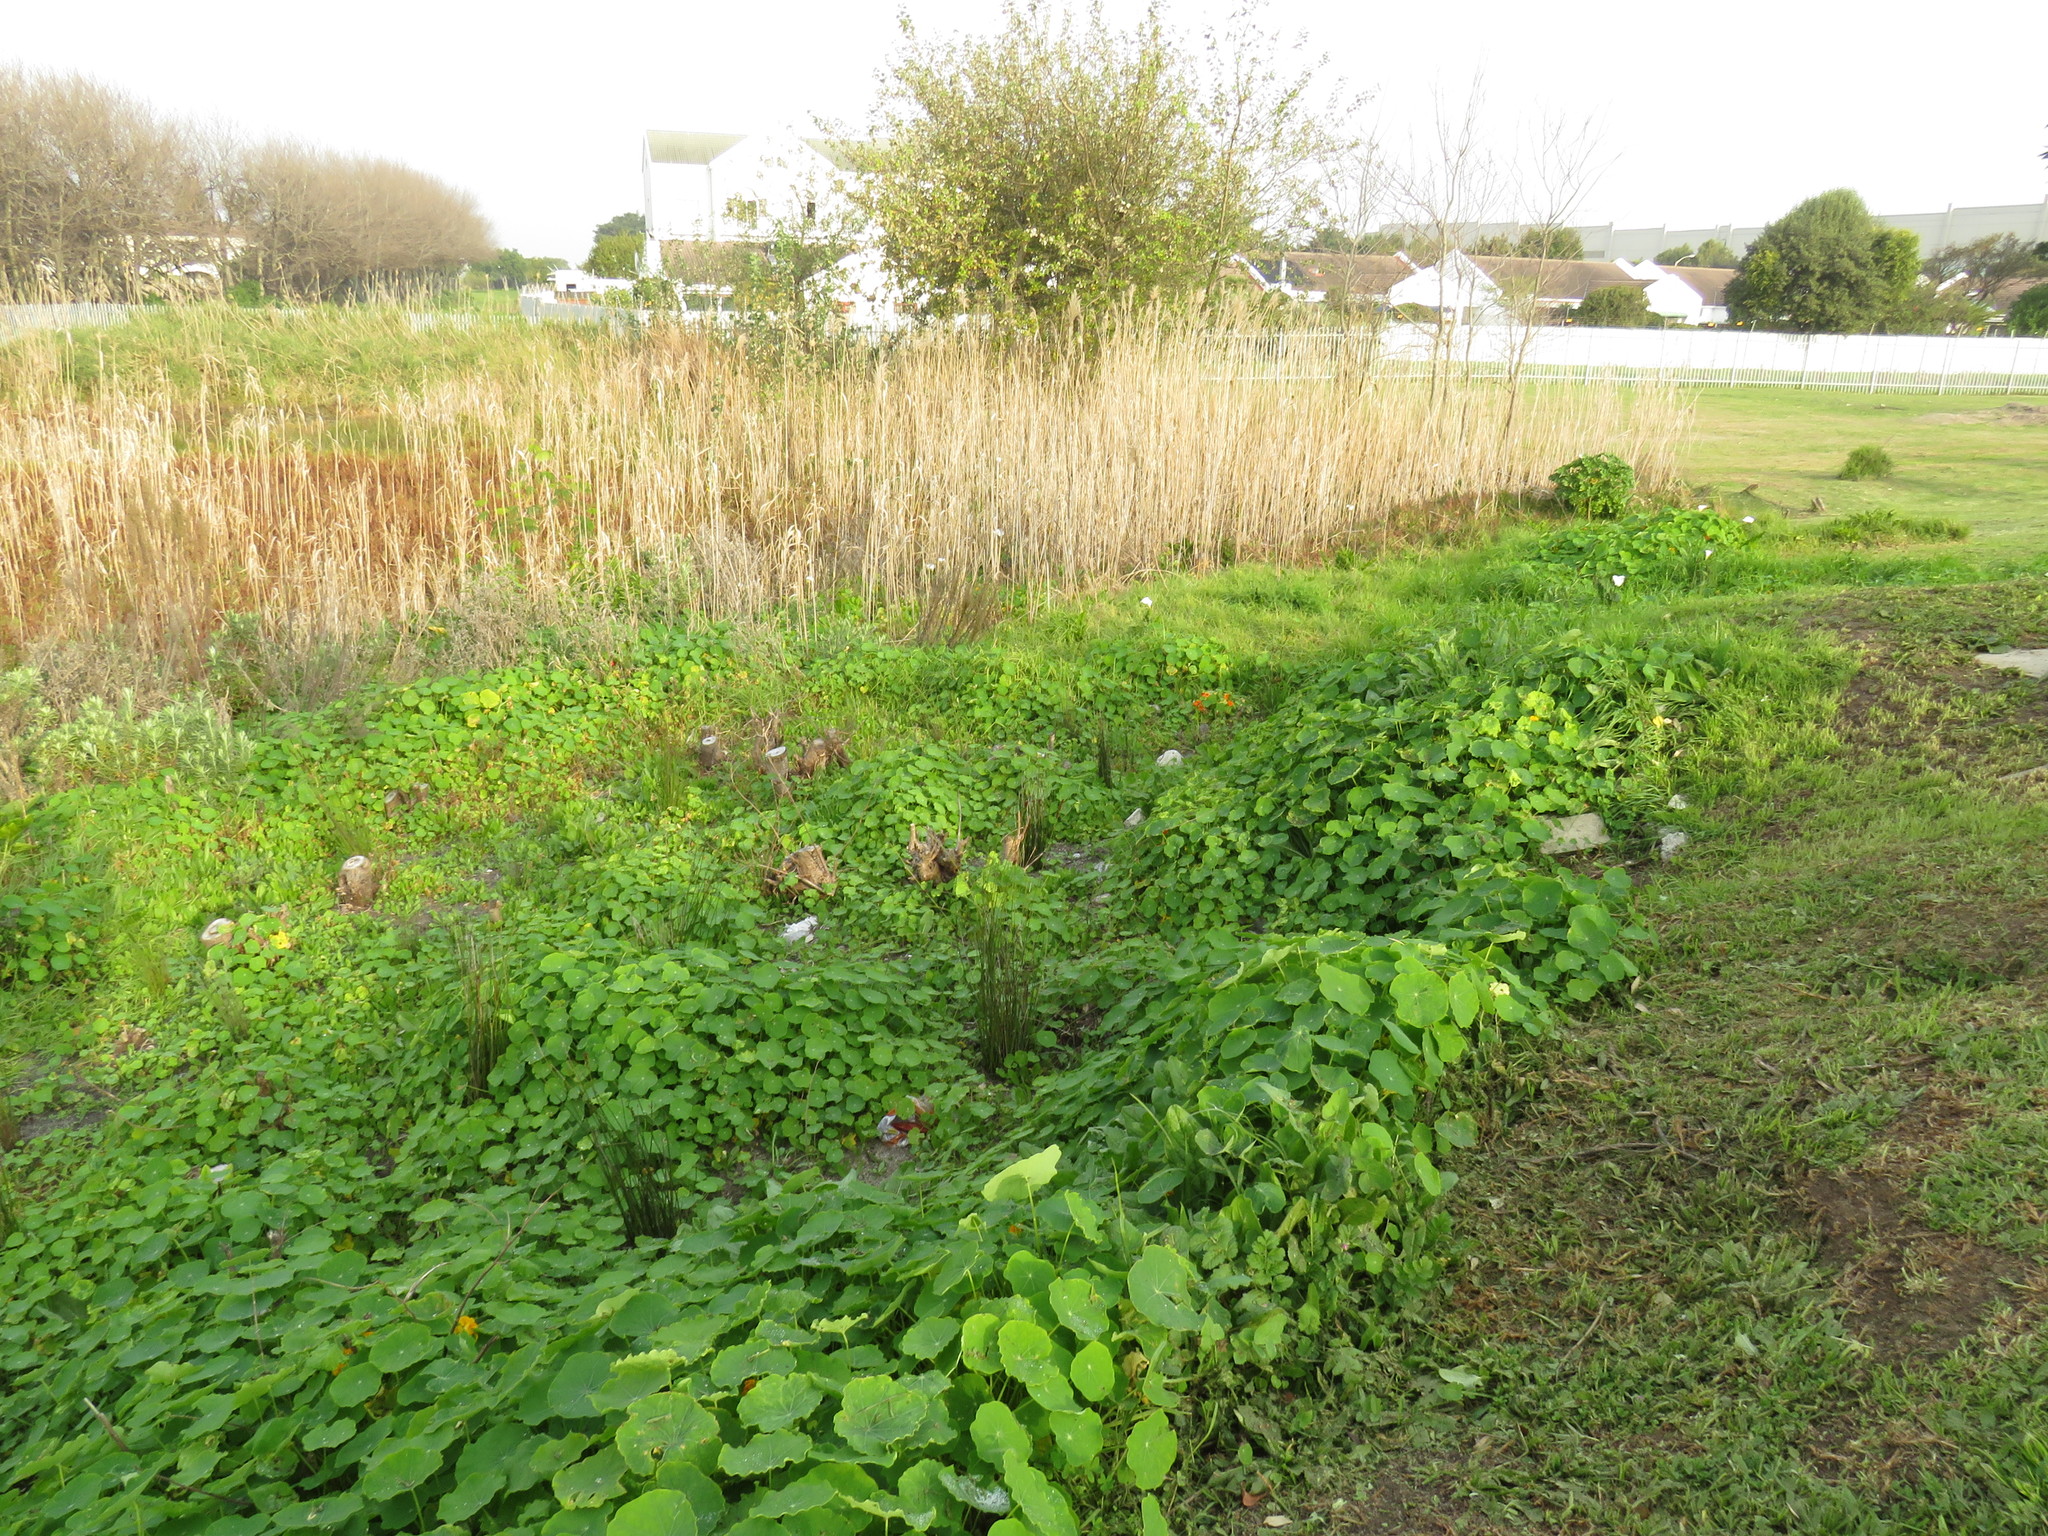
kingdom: Plantae
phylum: Tracheophyta
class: Magnoliopsida
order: Brassicales
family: Tropaeolaceae
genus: Tropaeolum
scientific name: Tropaeolum majus
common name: Nasturtium
